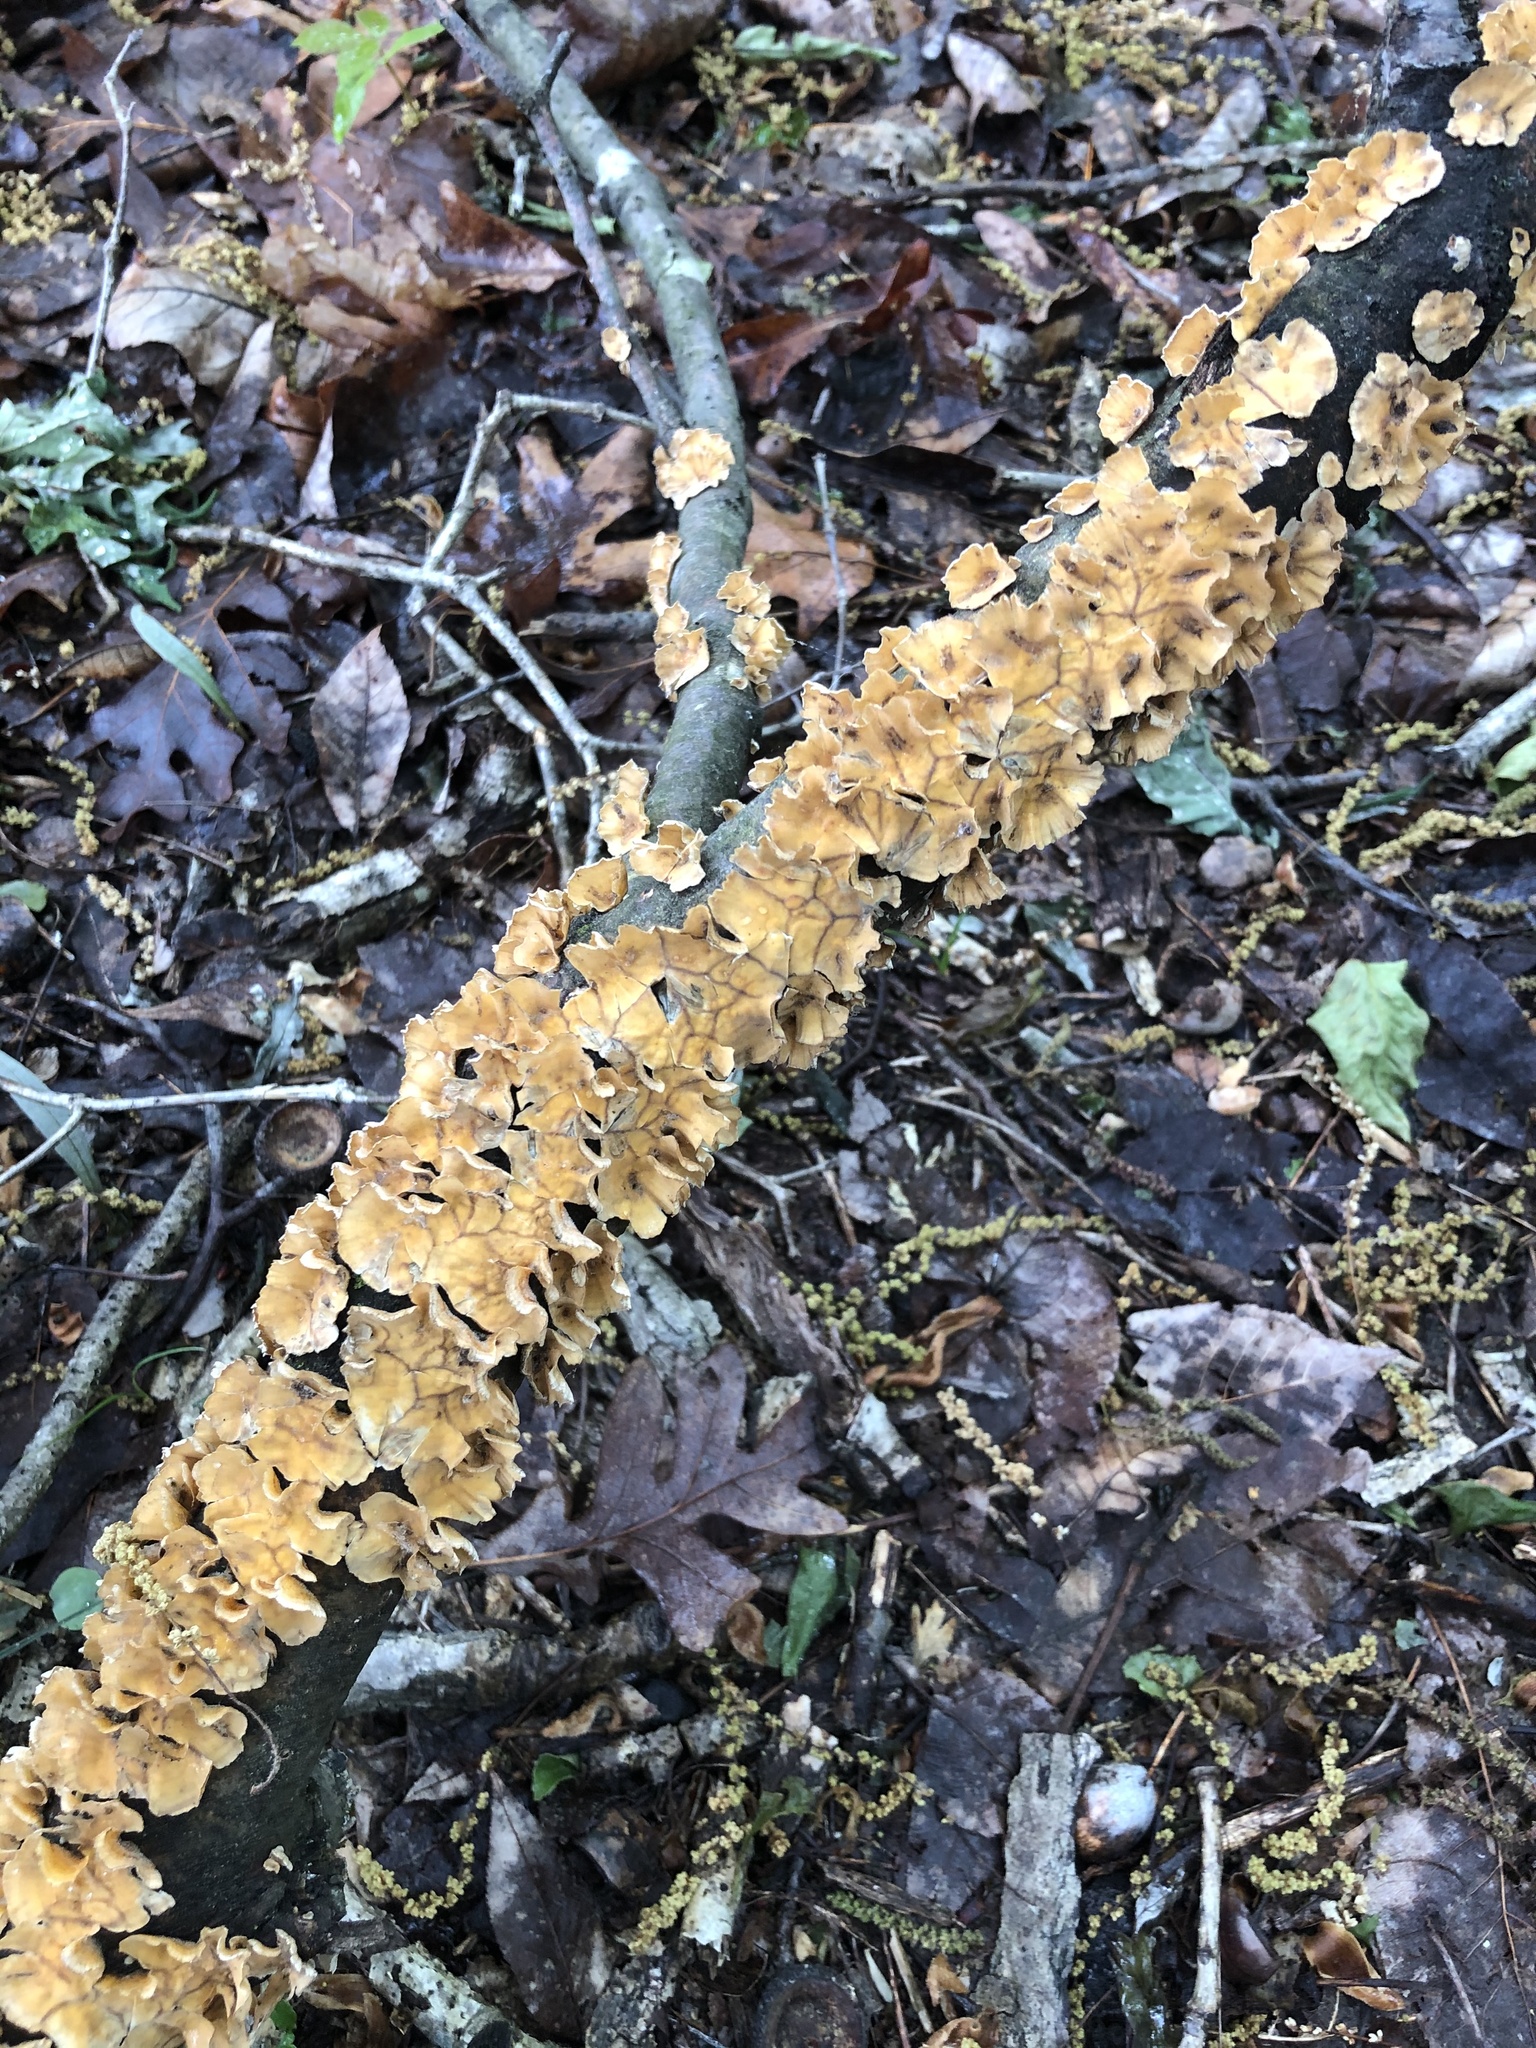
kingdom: Fungi
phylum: Basidiomycota
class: Agaricomycetes
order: Russulales
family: Stereaceae
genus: Stereum
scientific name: Stereum complicatum
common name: Crowded parchment
